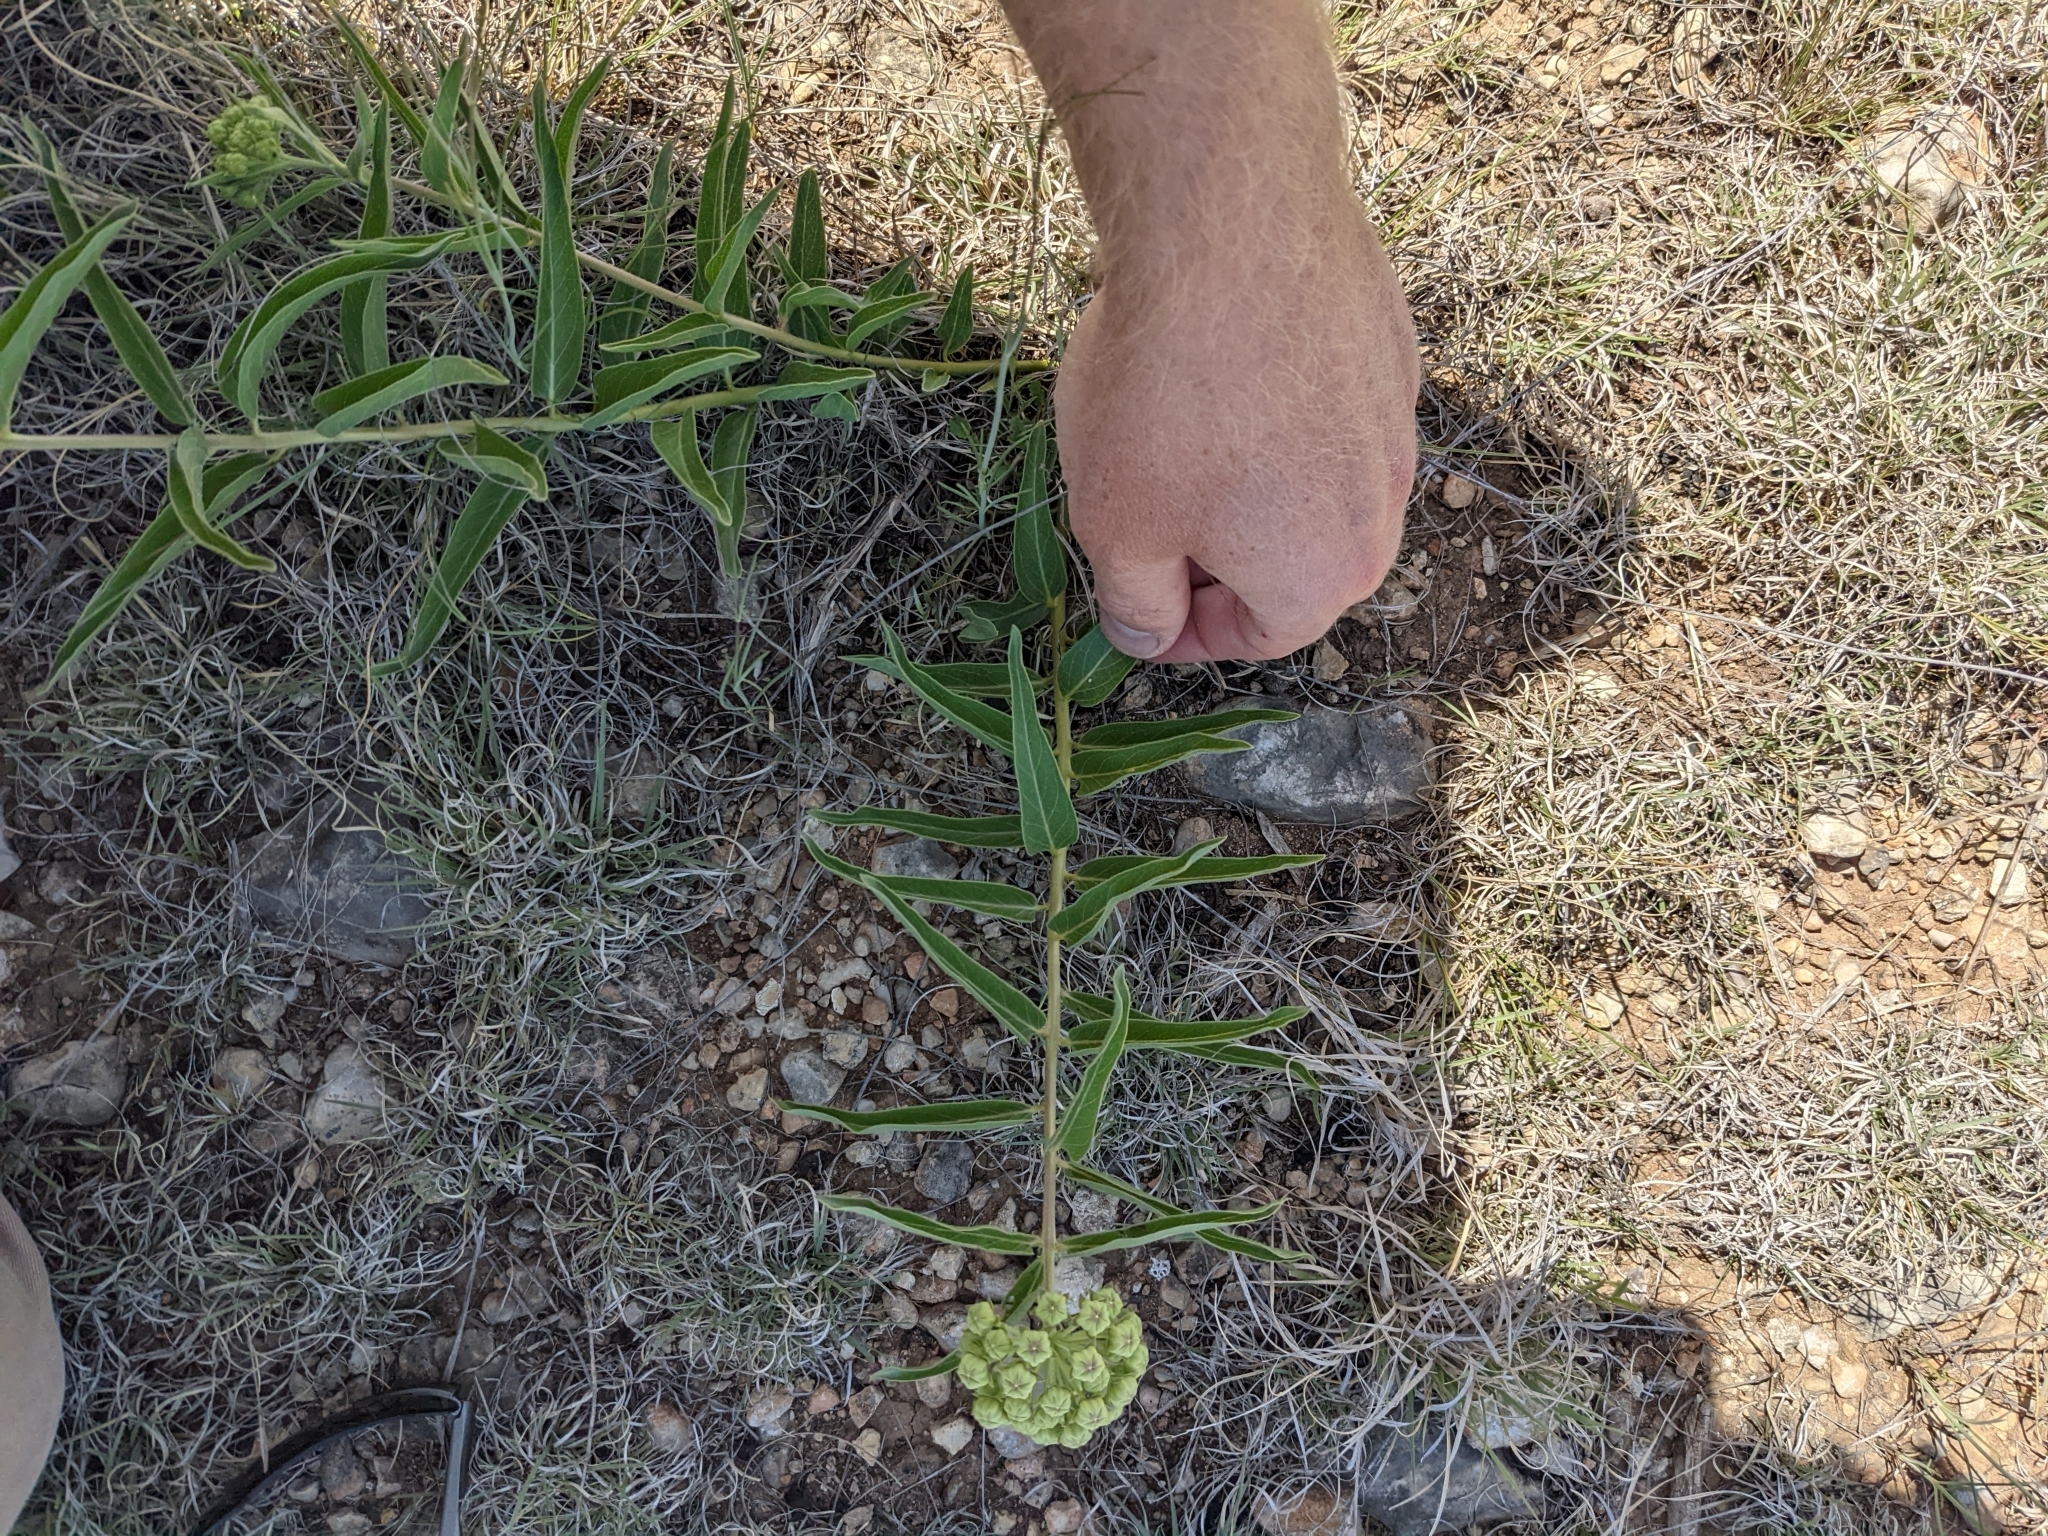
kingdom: Animalia
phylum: Arthropoda
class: Insecta
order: Lepidoptera
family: Nymphalidae
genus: Danaus
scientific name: Danaus plexippus
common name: Monarch
